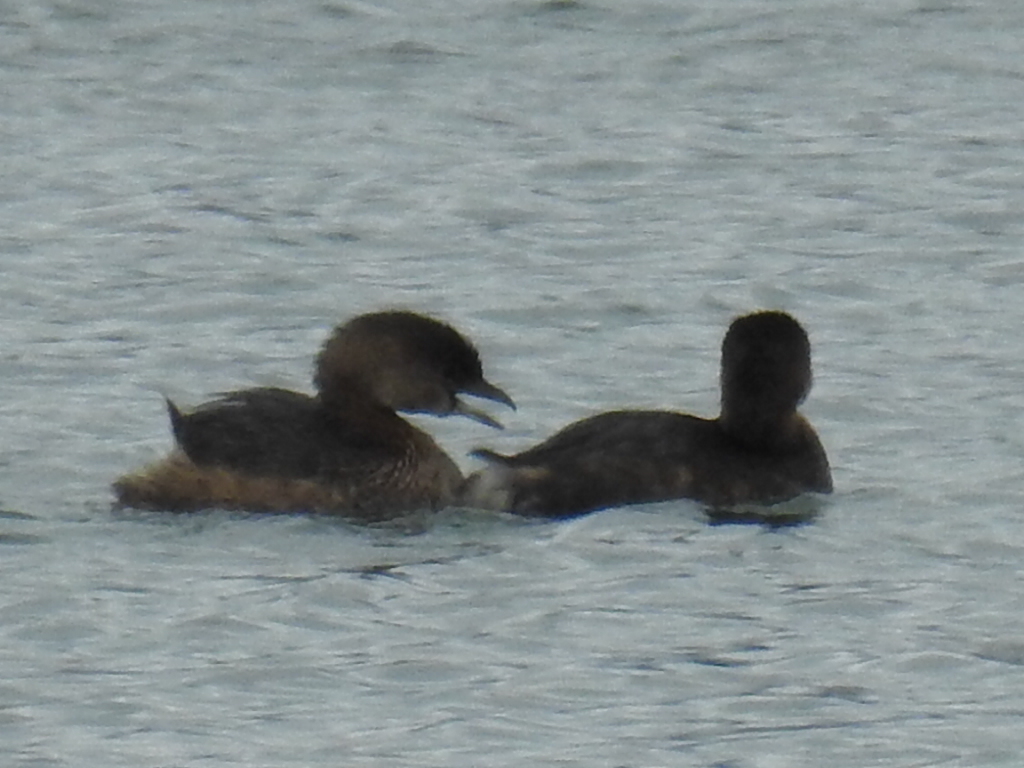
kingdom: Animalia
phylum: Chordata
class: Aves
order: Podicipediformes
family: Podicipedidae
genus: Podilymbus
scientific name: Podilymbus podiceps
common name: Pied-billed grebe
